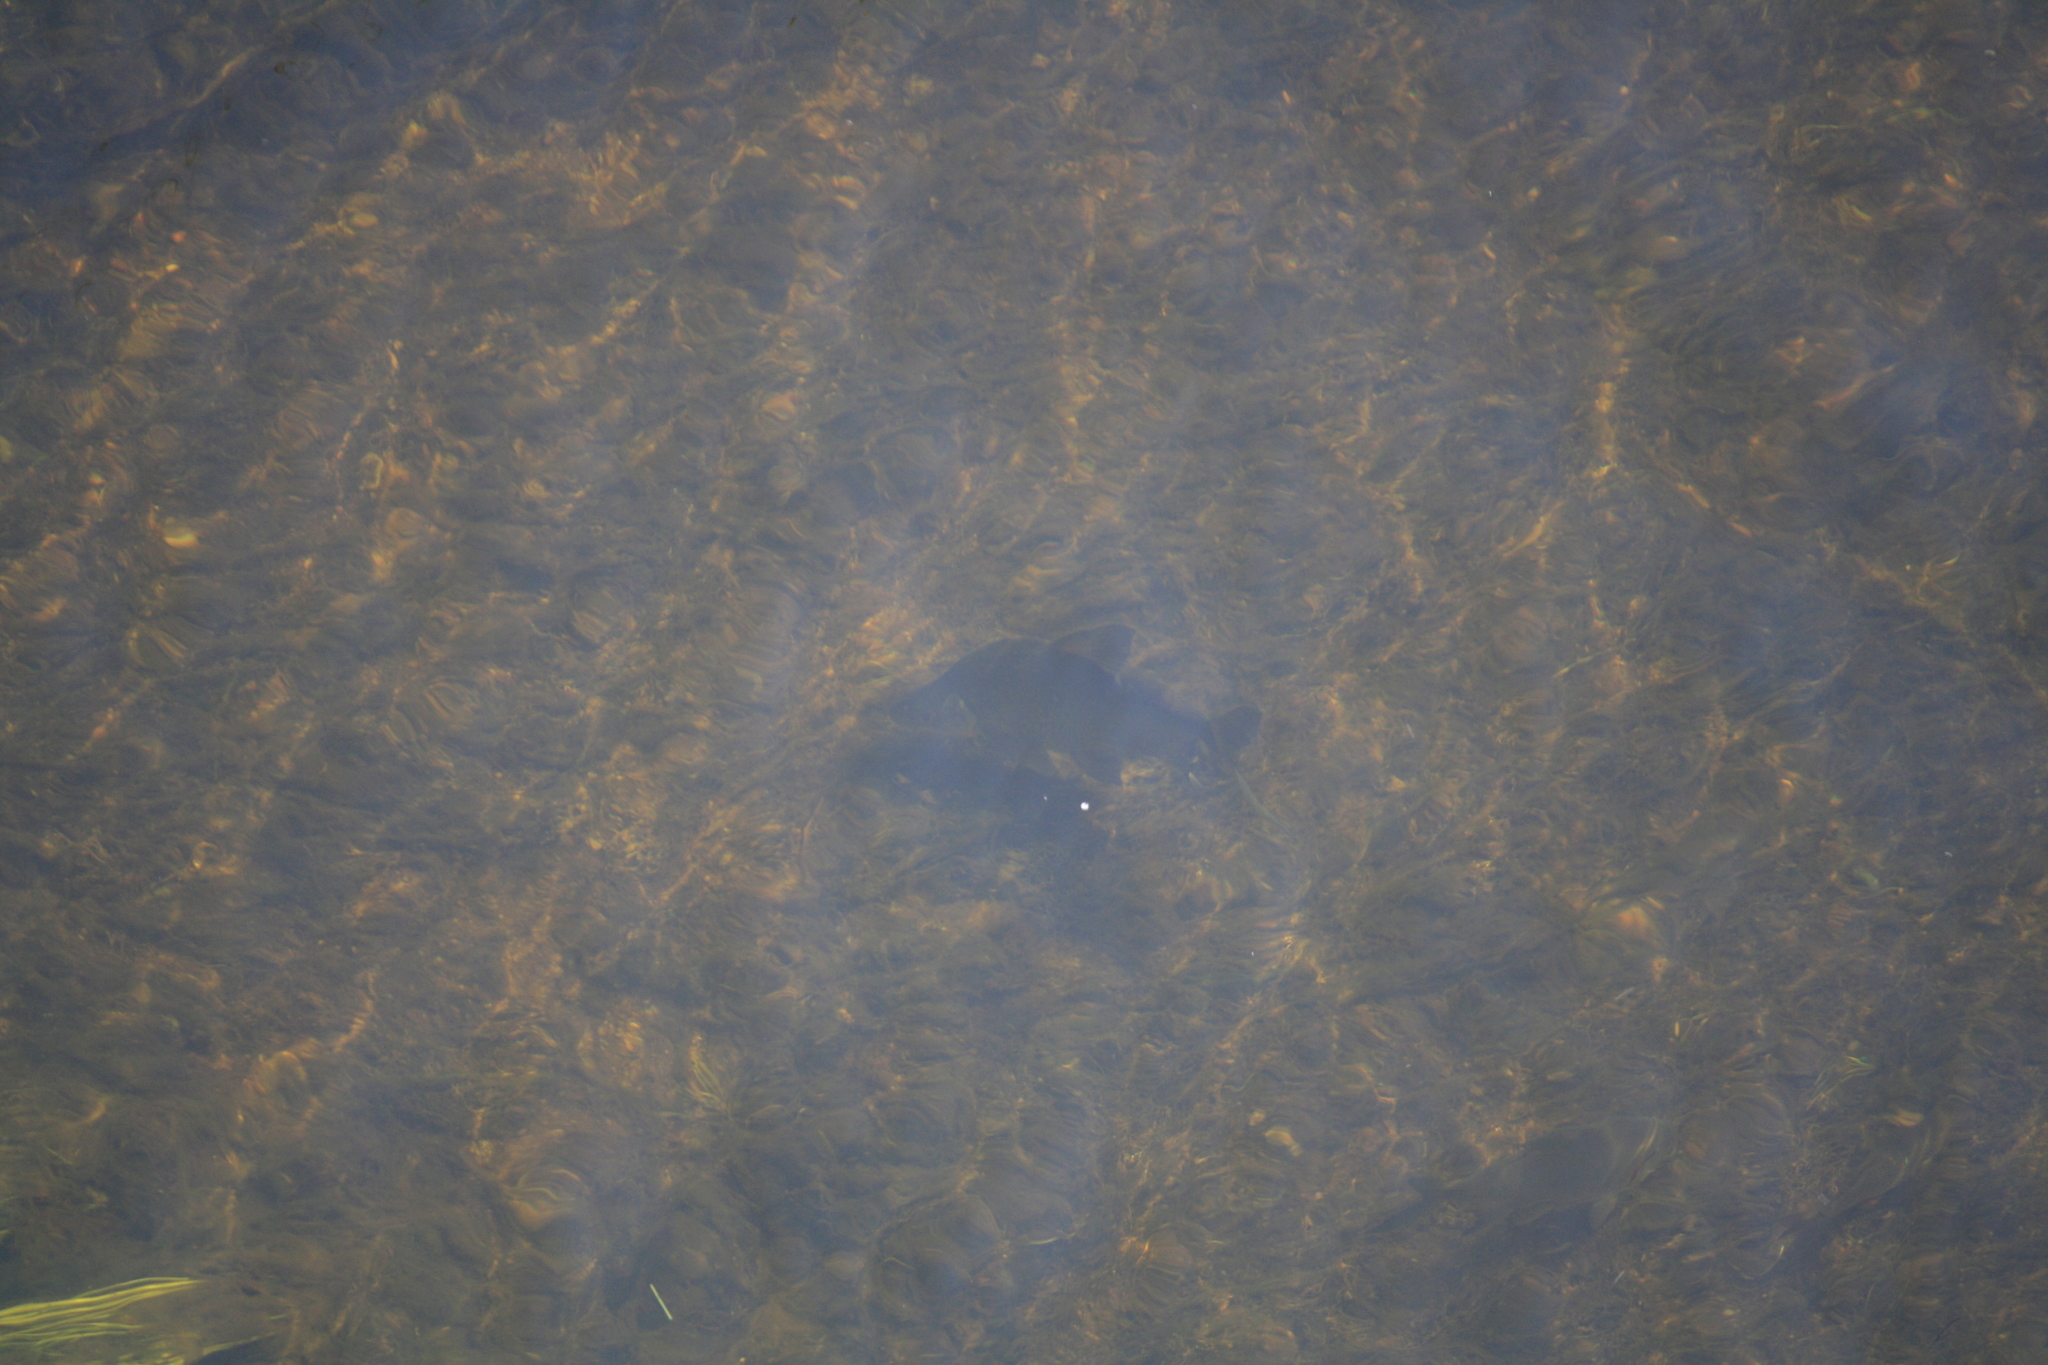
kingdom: Animalia
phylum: Chordata
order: Cypriniformes
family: Cyprinidae
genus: Abramis
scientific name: Abramis brama
